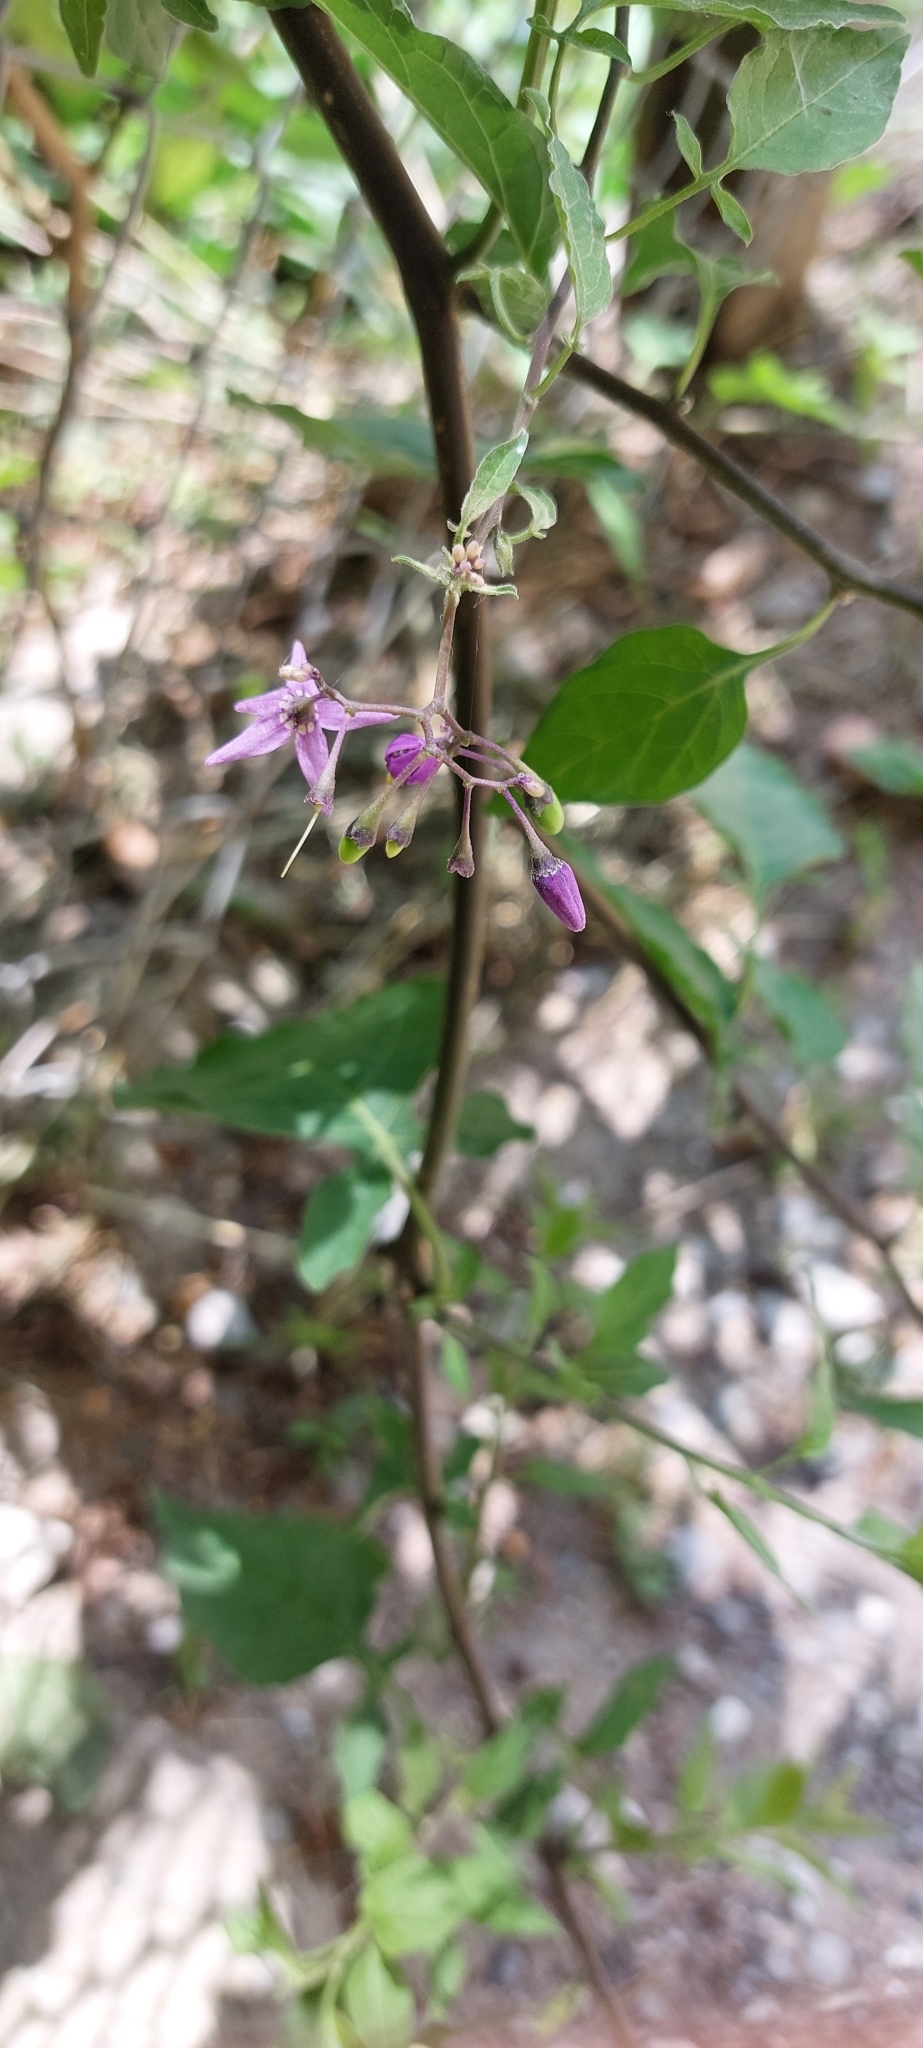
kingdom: Plantae
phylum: Tracheophyta
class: Magnoliopsida
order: Solanales
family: Solanaceae
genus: Solanum
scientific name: Solanum dulcamara
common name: Climbing nightshade
